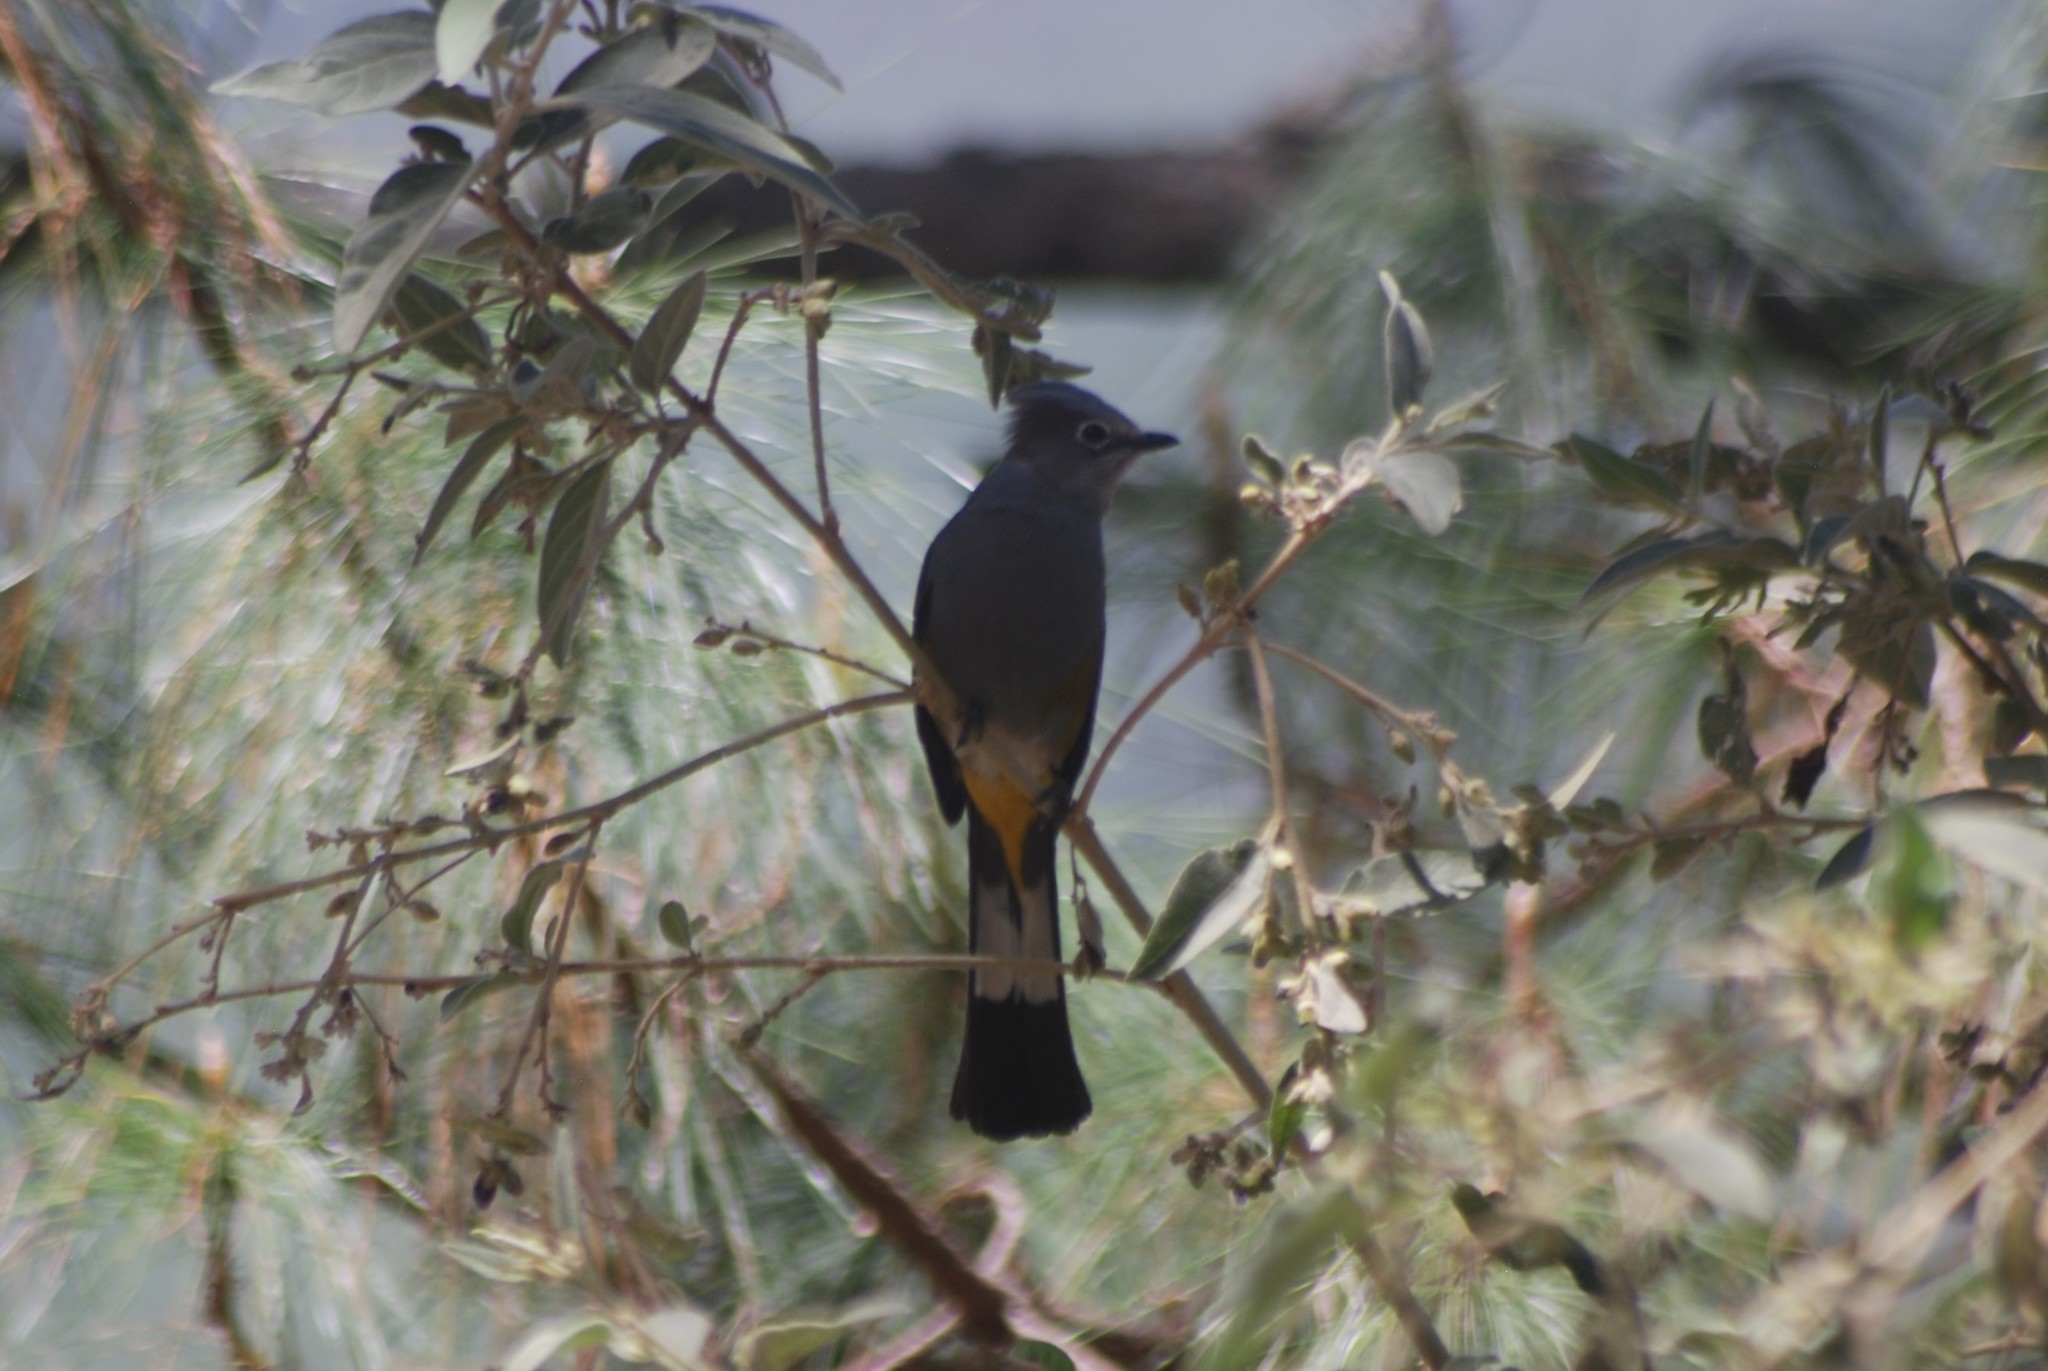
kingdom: Animalia
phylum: Chordata
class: Aves
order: Passeriformes
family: Ptilogonatidae
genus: Ptilogonys
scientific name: Ptilogonys cinereus
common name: Gray silky-flycatcher
